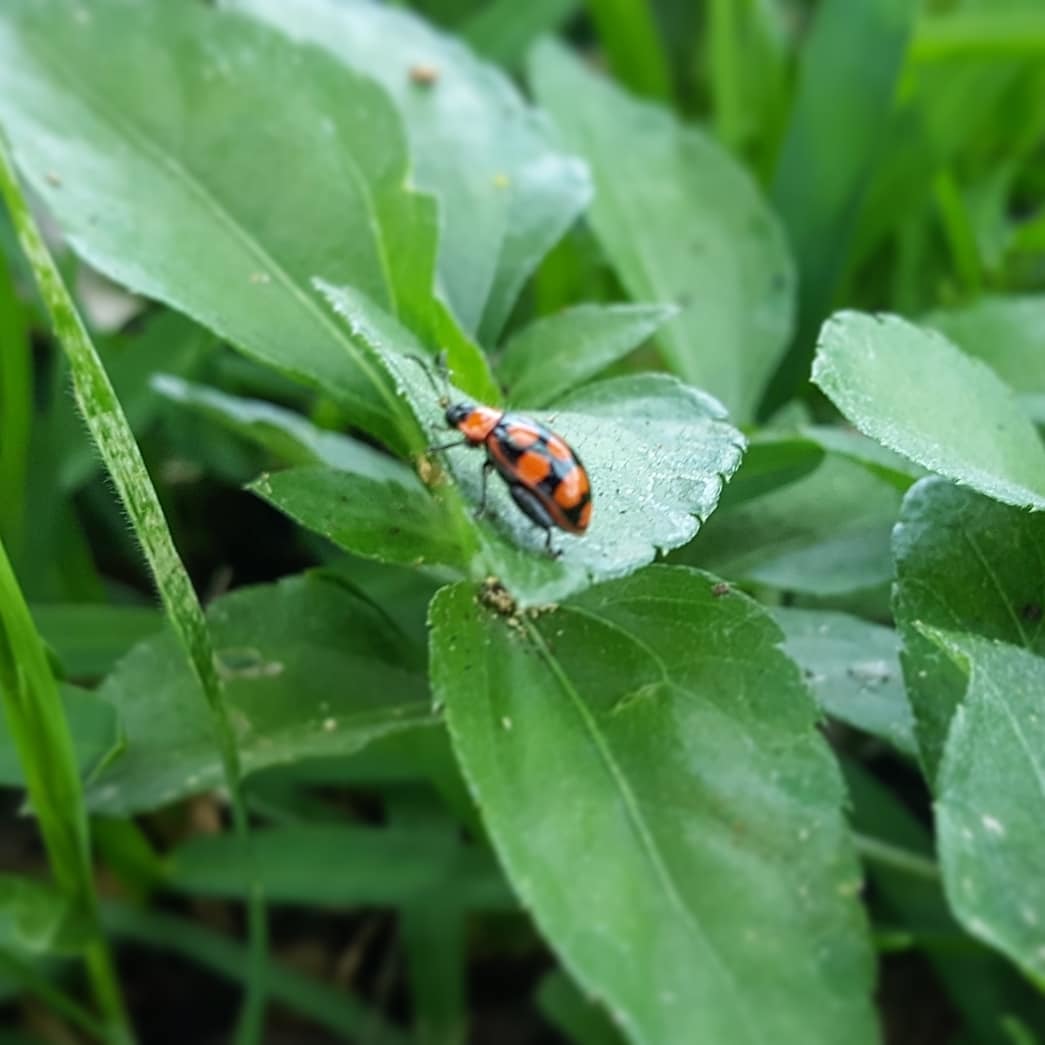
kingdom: Animalia
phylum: Arthropoda
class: Insecta
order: Coleoptera
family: Chrysomelidae
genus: Alagoasa
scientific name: Alagoasa
